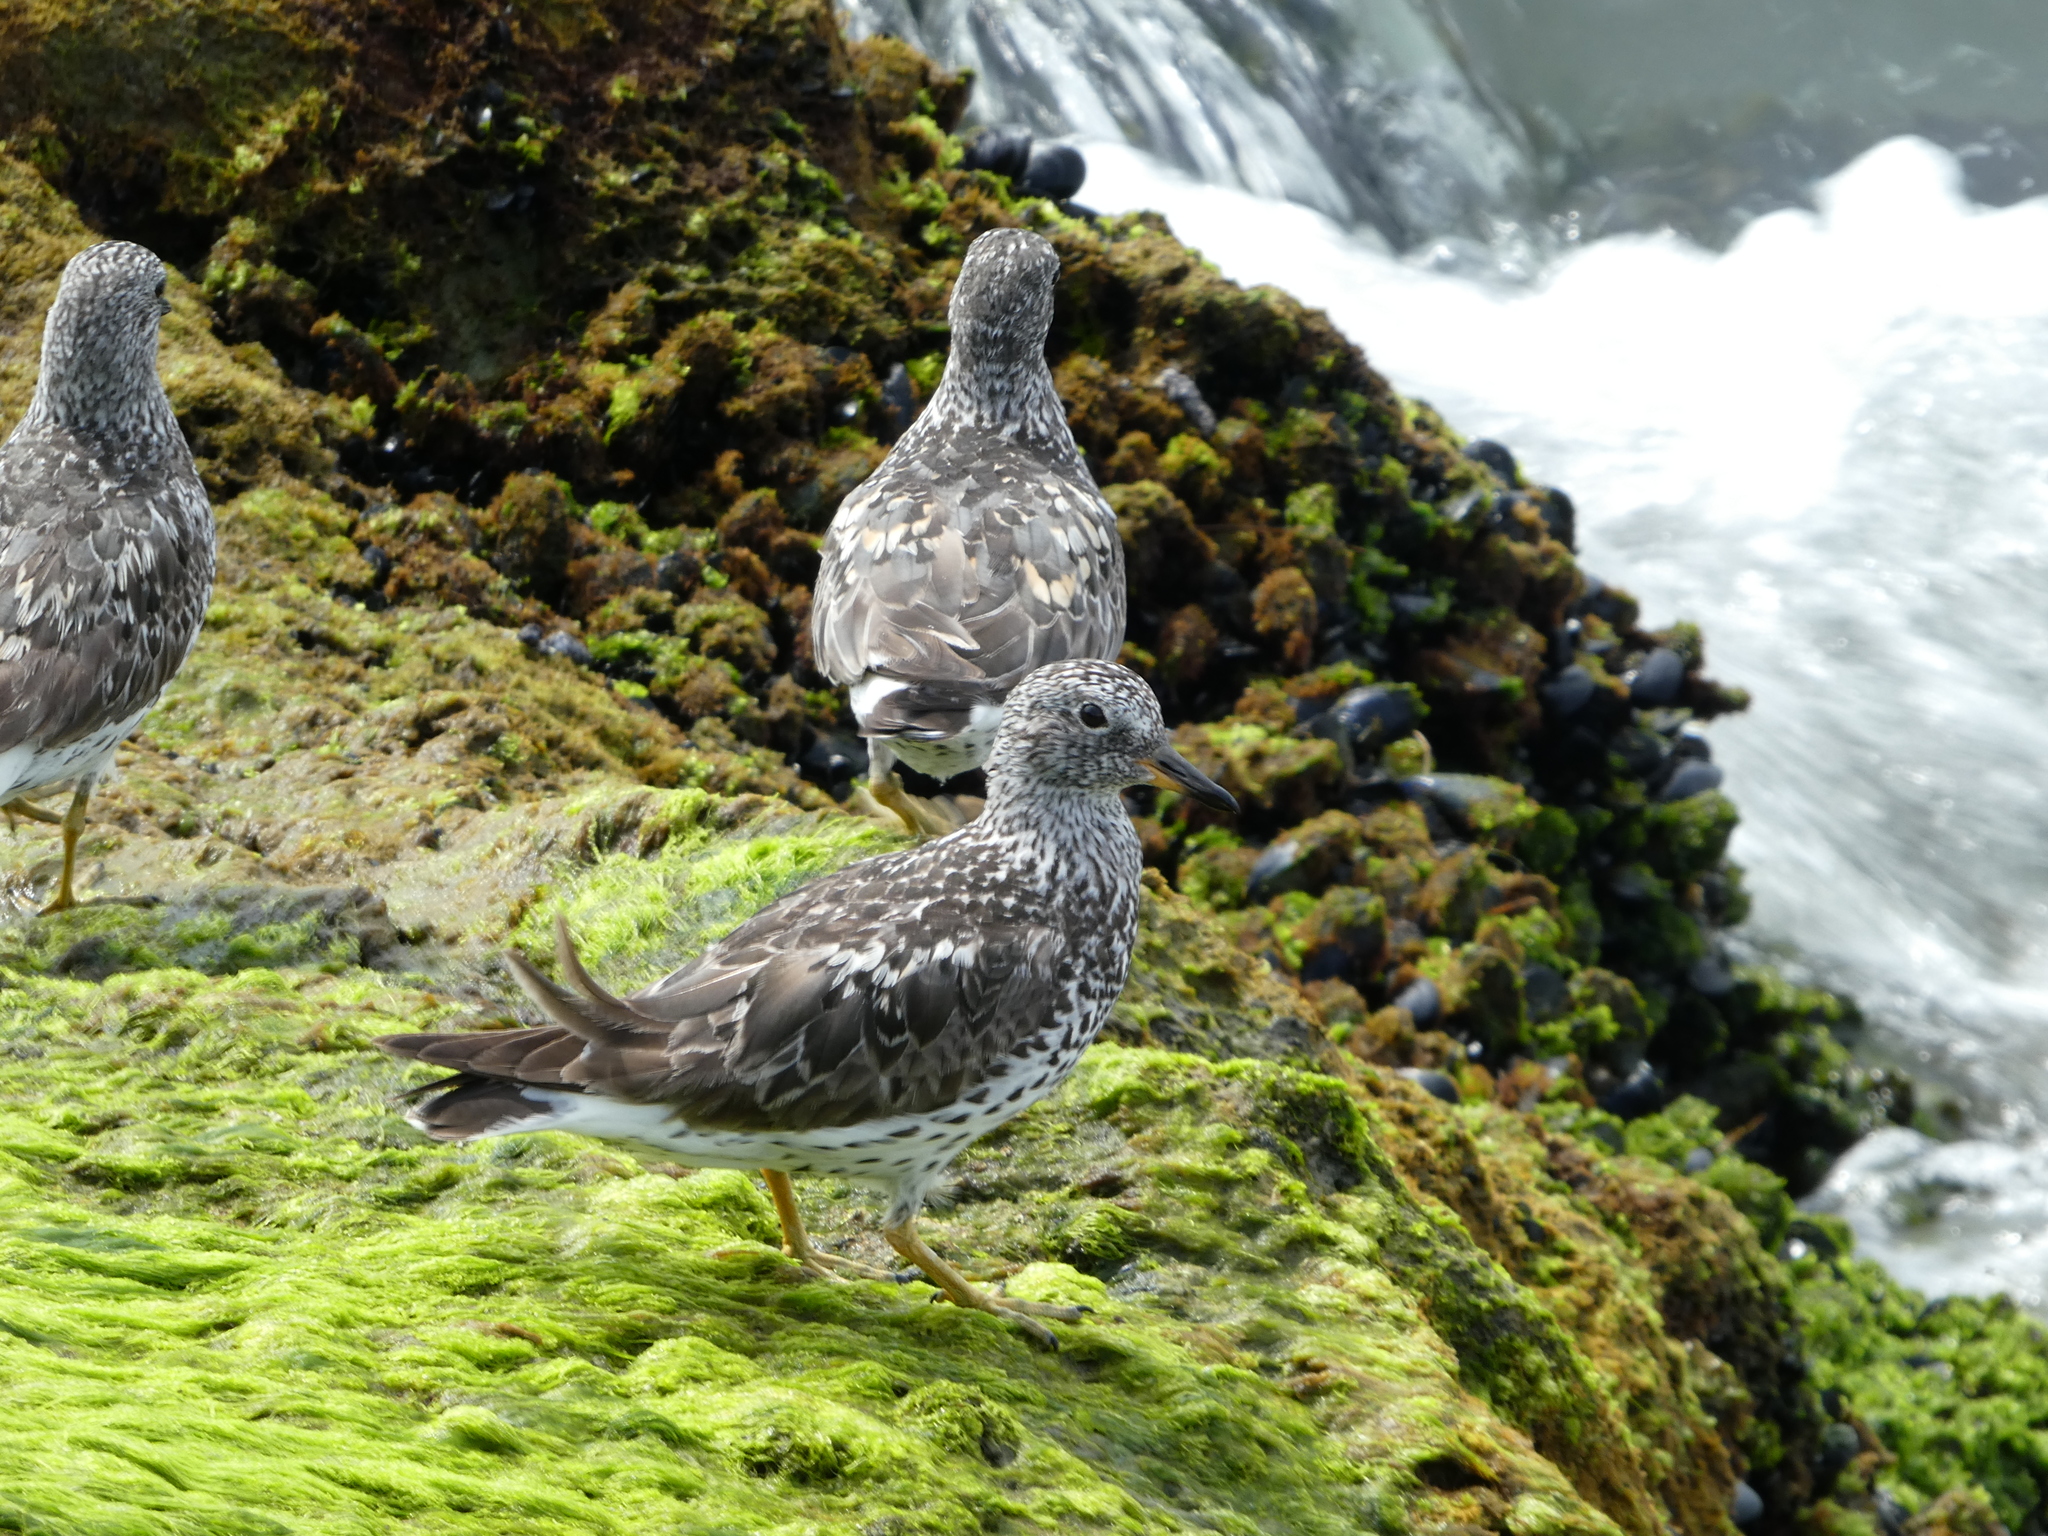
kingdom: Animalia
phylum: Chordata
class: Aves
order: Charadriiformes
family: Scolopacidae
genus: Calidris
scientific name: Calidris virgata
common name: Surfbird
